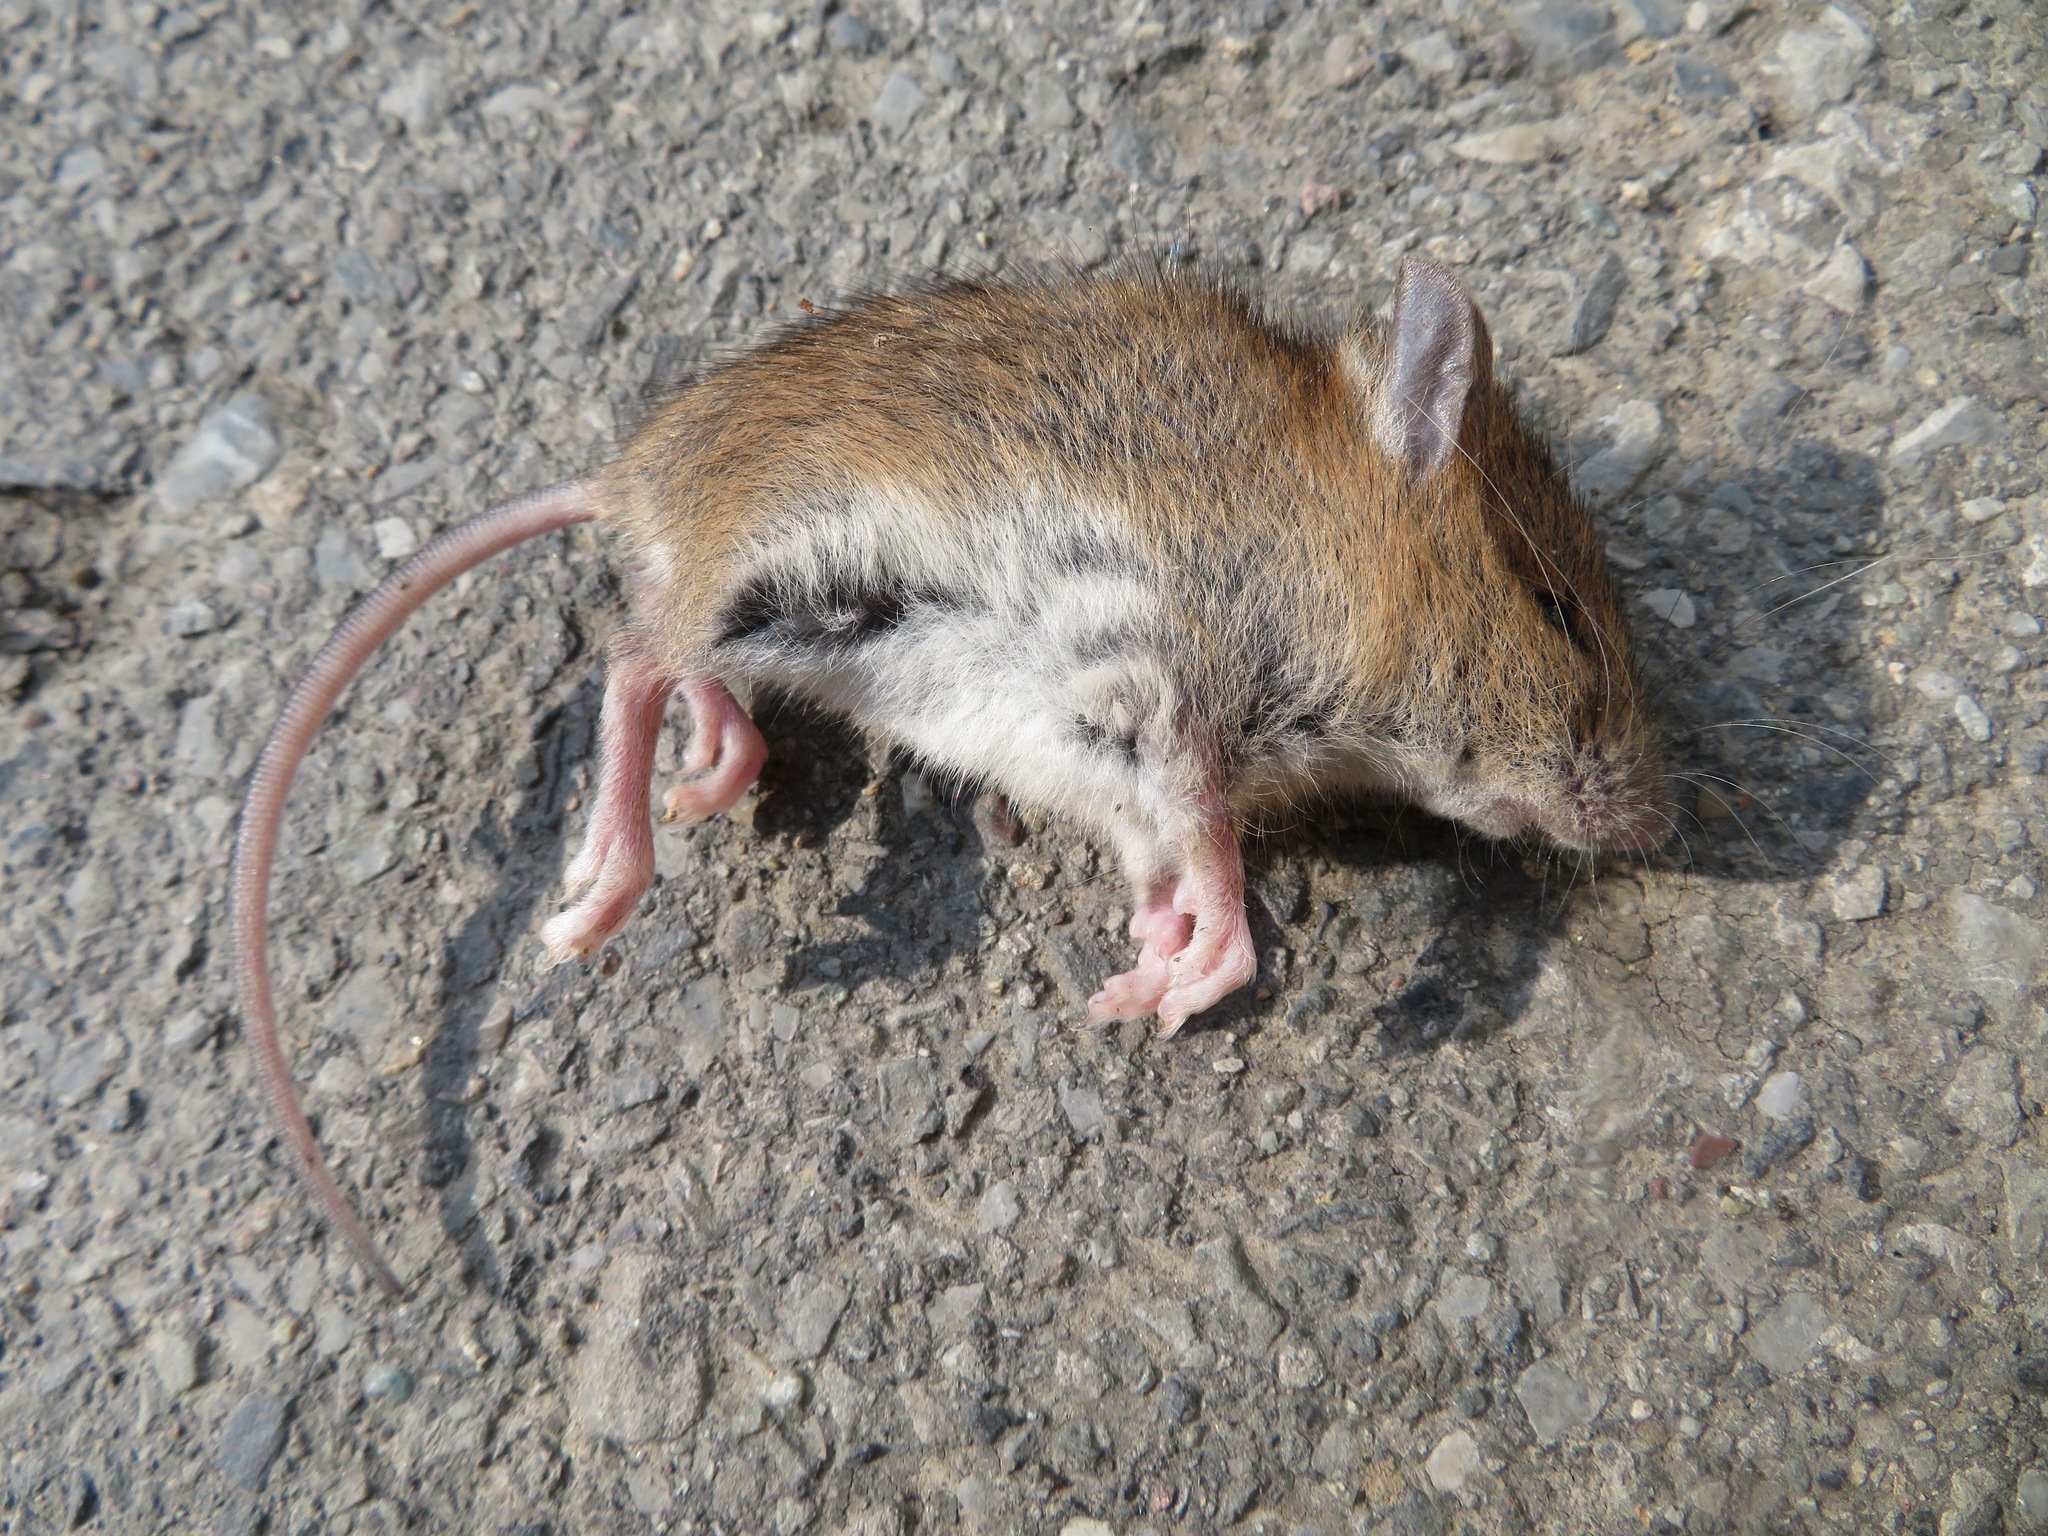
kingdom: Animalia
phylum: Chordata
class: Mammalia
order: Rodentia
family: Muridae
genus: Apodemus
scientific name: Apodemus argenteus
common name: Small japanese field mouse
